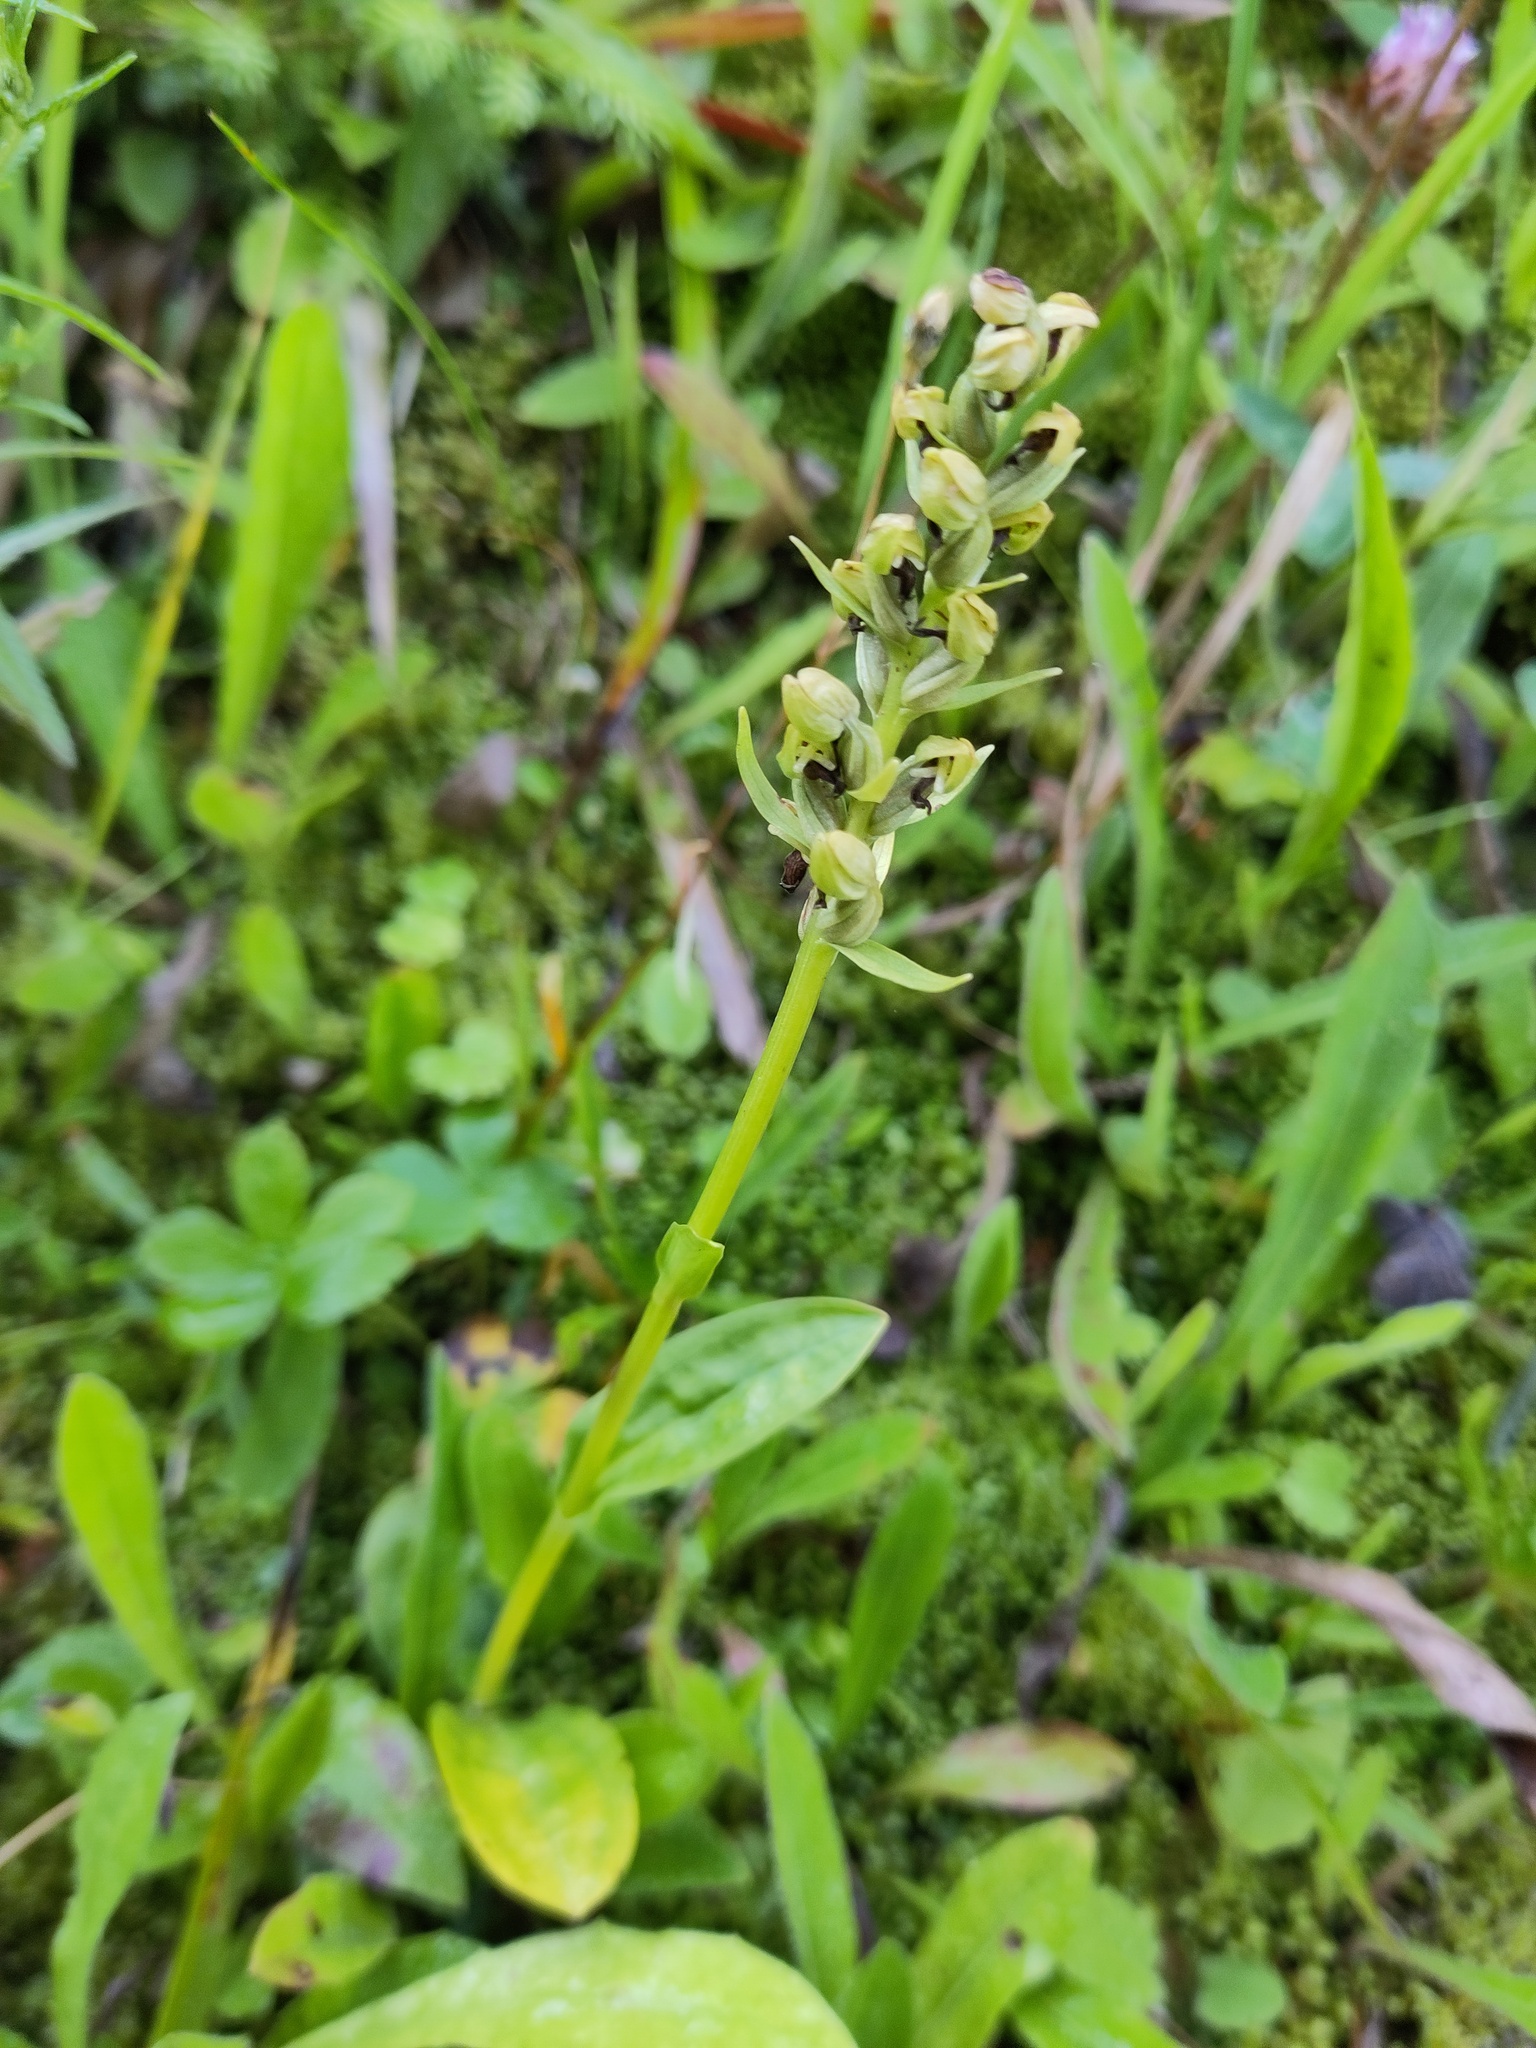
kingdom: Plantae
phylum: Tracheophyta
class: Liliopsida
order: Asparagales
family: Orchidaceae
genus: Dactylorhiza
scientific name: Dactylorhiza viridis
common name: Longbract frog orchid
